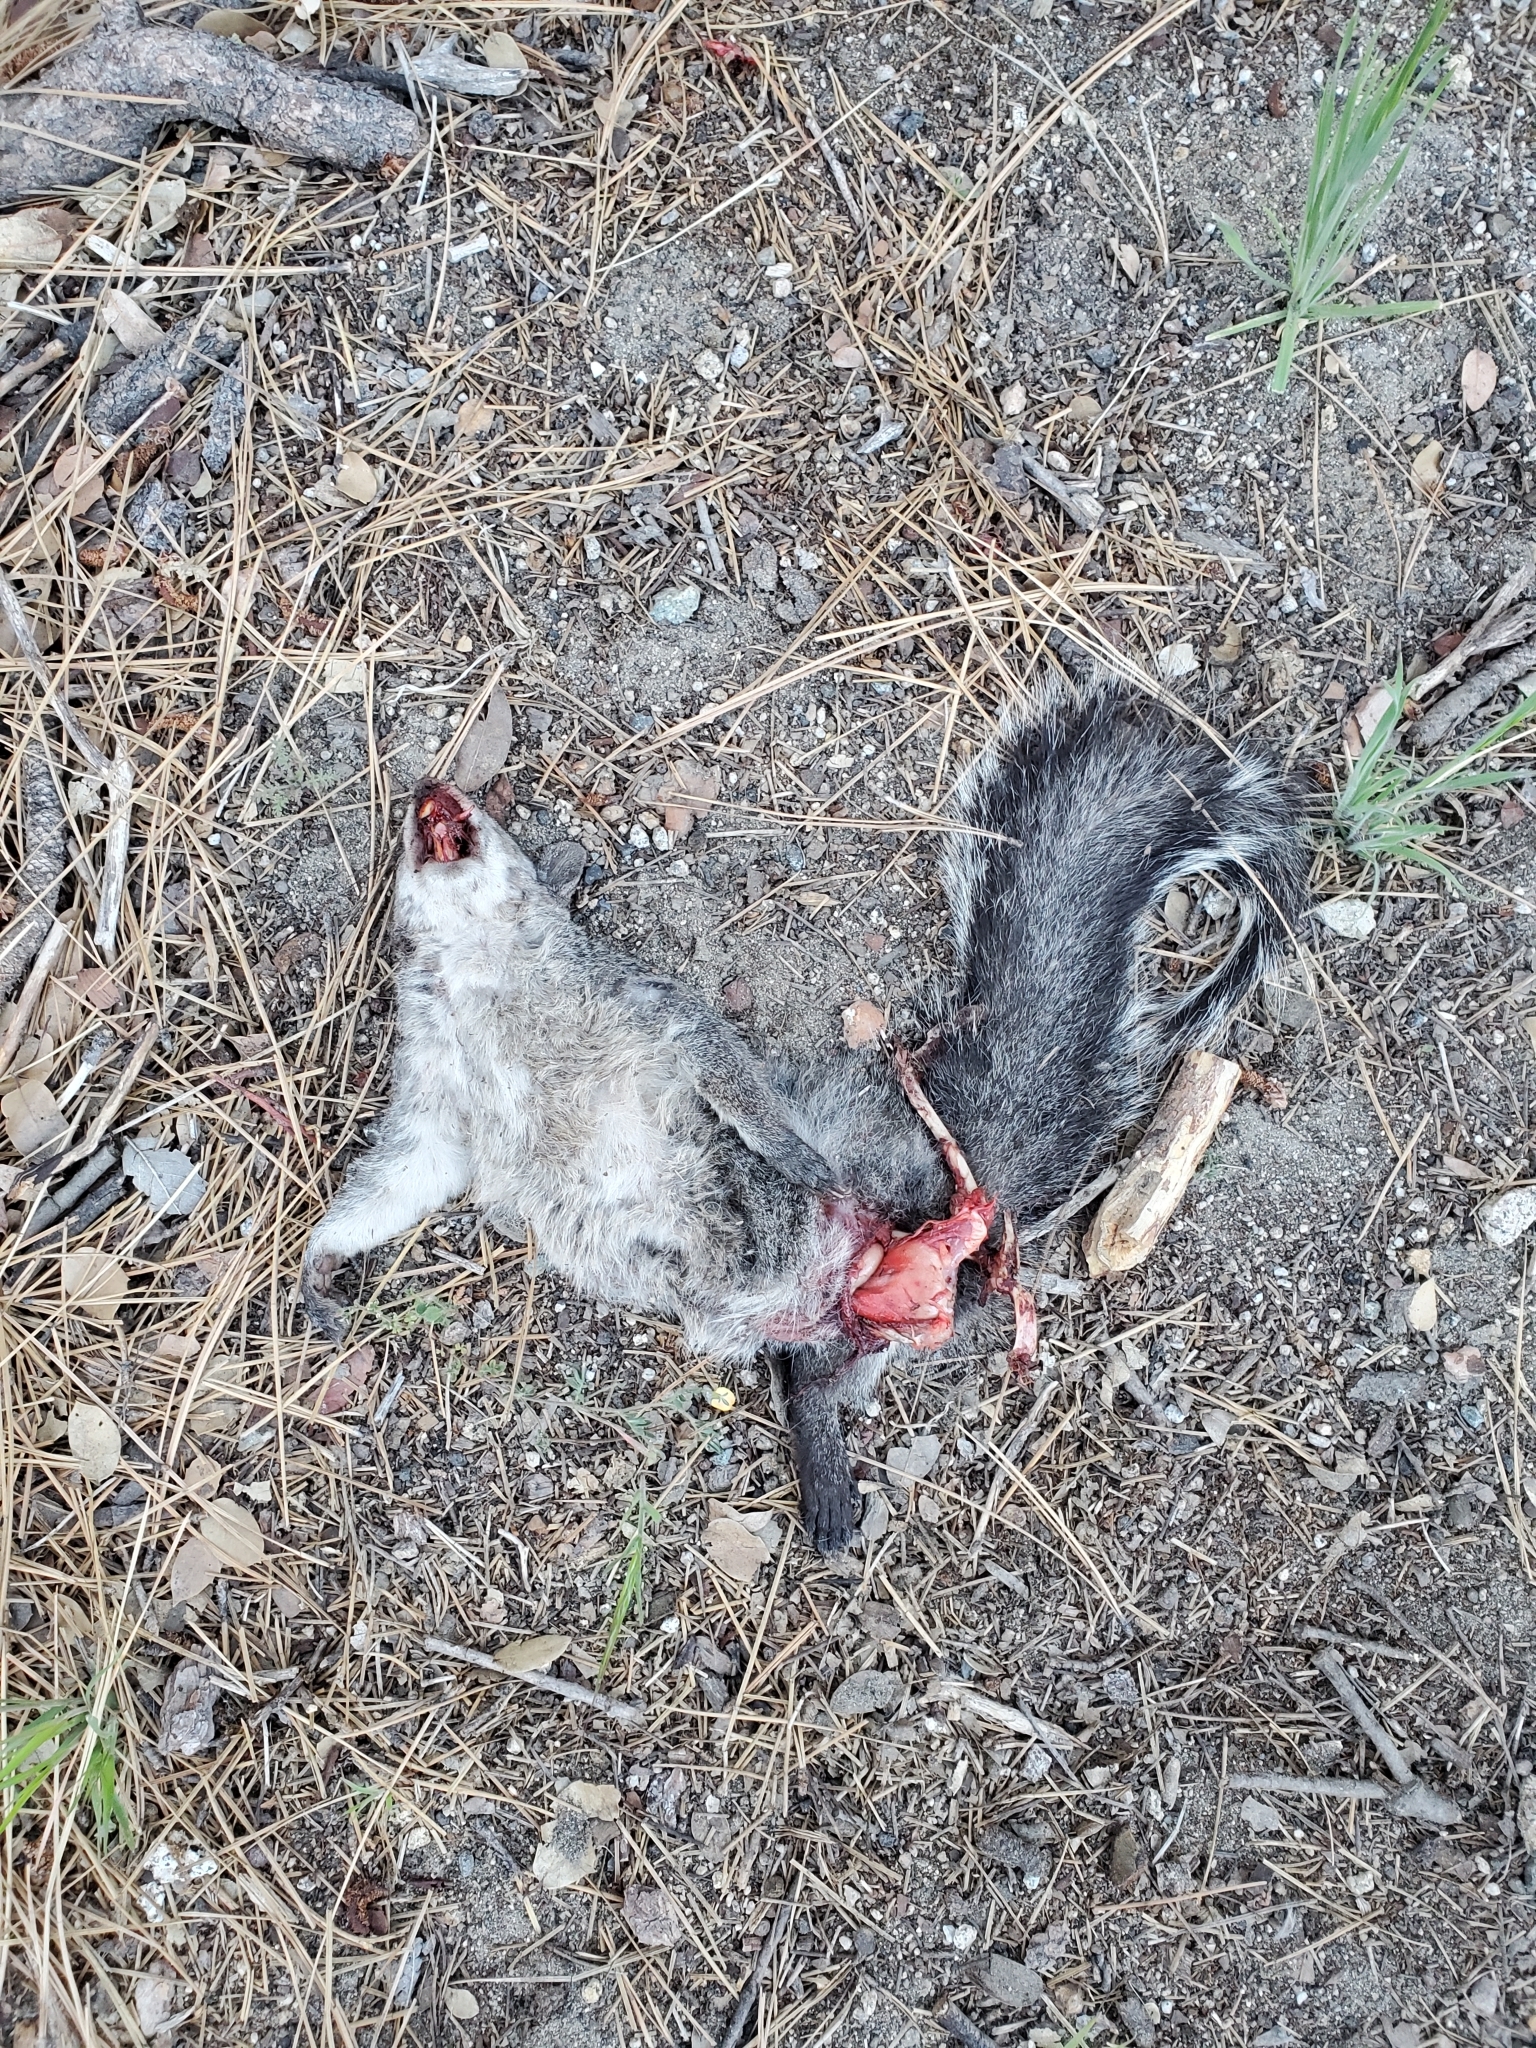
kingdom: Animalia
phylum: Chordata
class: Mammalia
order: Rodentia
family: Sciuridae
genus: Sciurus
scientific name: Sciurus griseus
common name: Western gray squirrel
